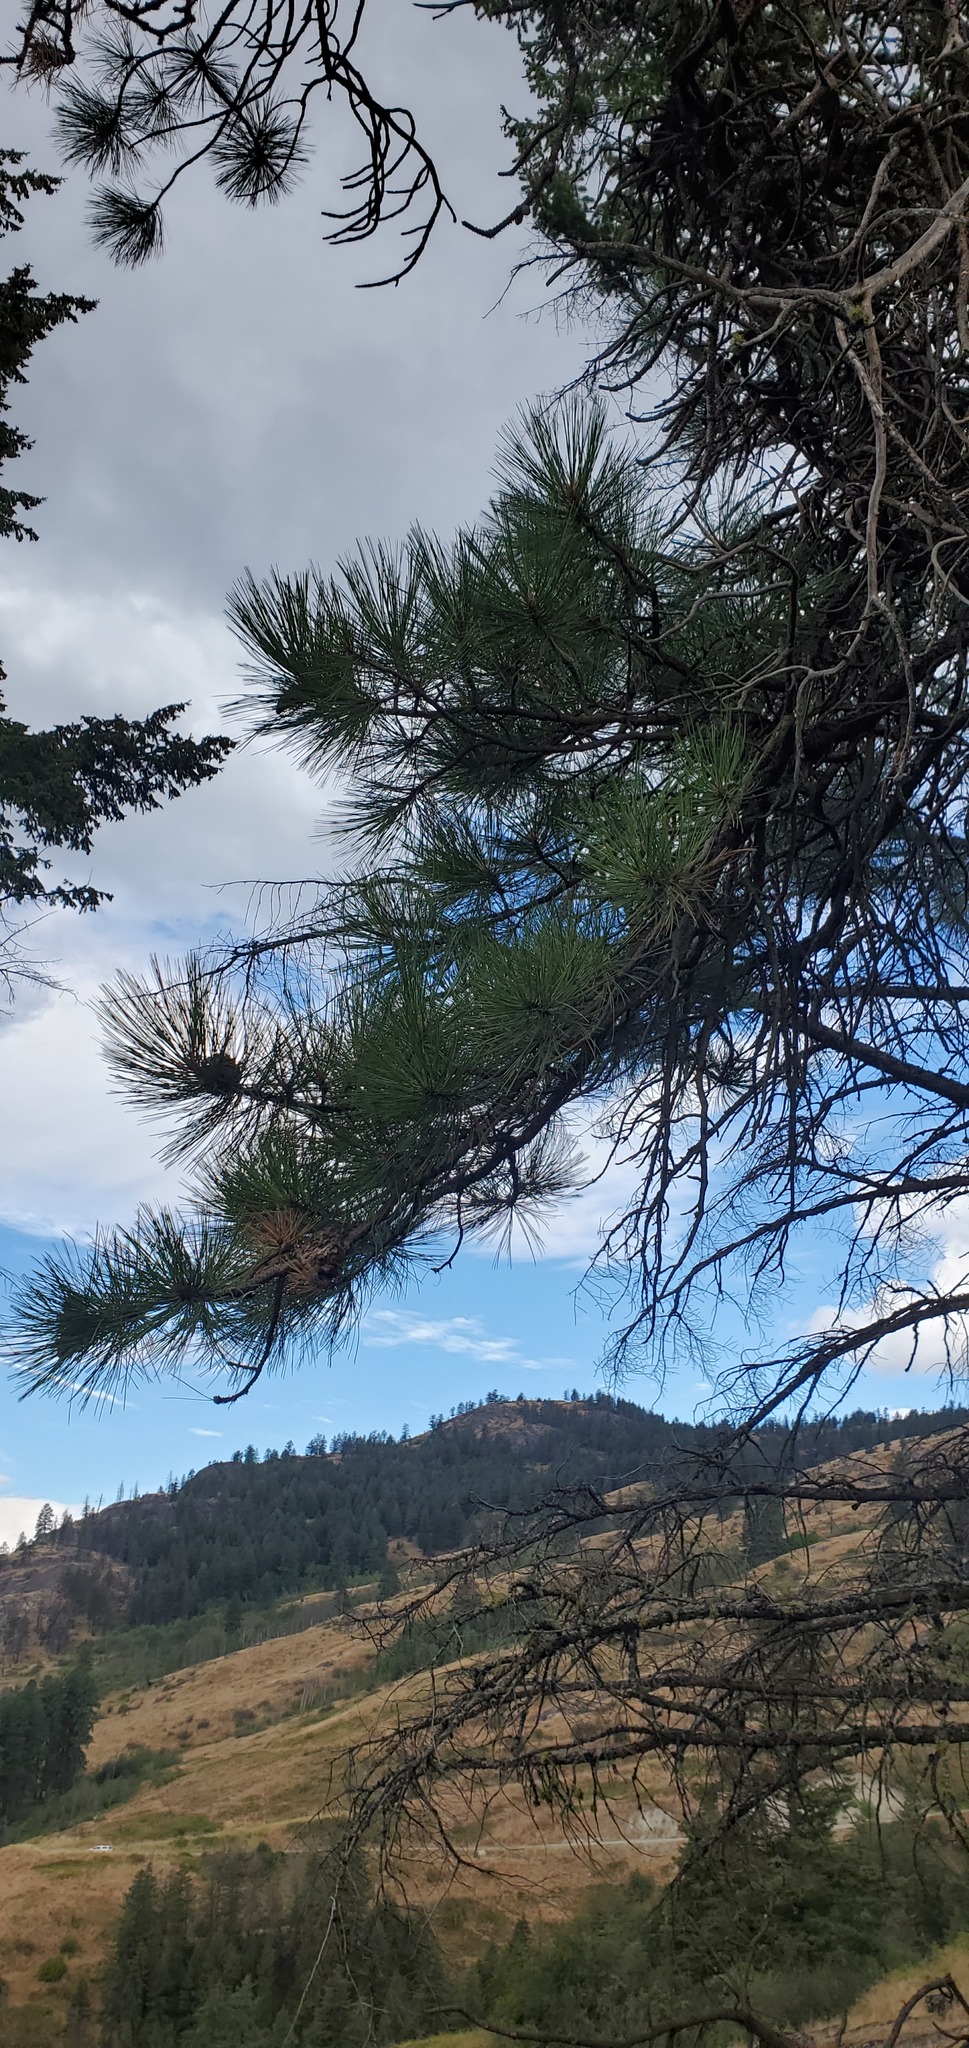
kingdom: Plantae
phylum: Tracheophyta
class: Pinopsida
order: Pinales
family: Pinaceae
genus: Pinus
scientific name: Pinus ponderosa
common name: Western yellow-pine
